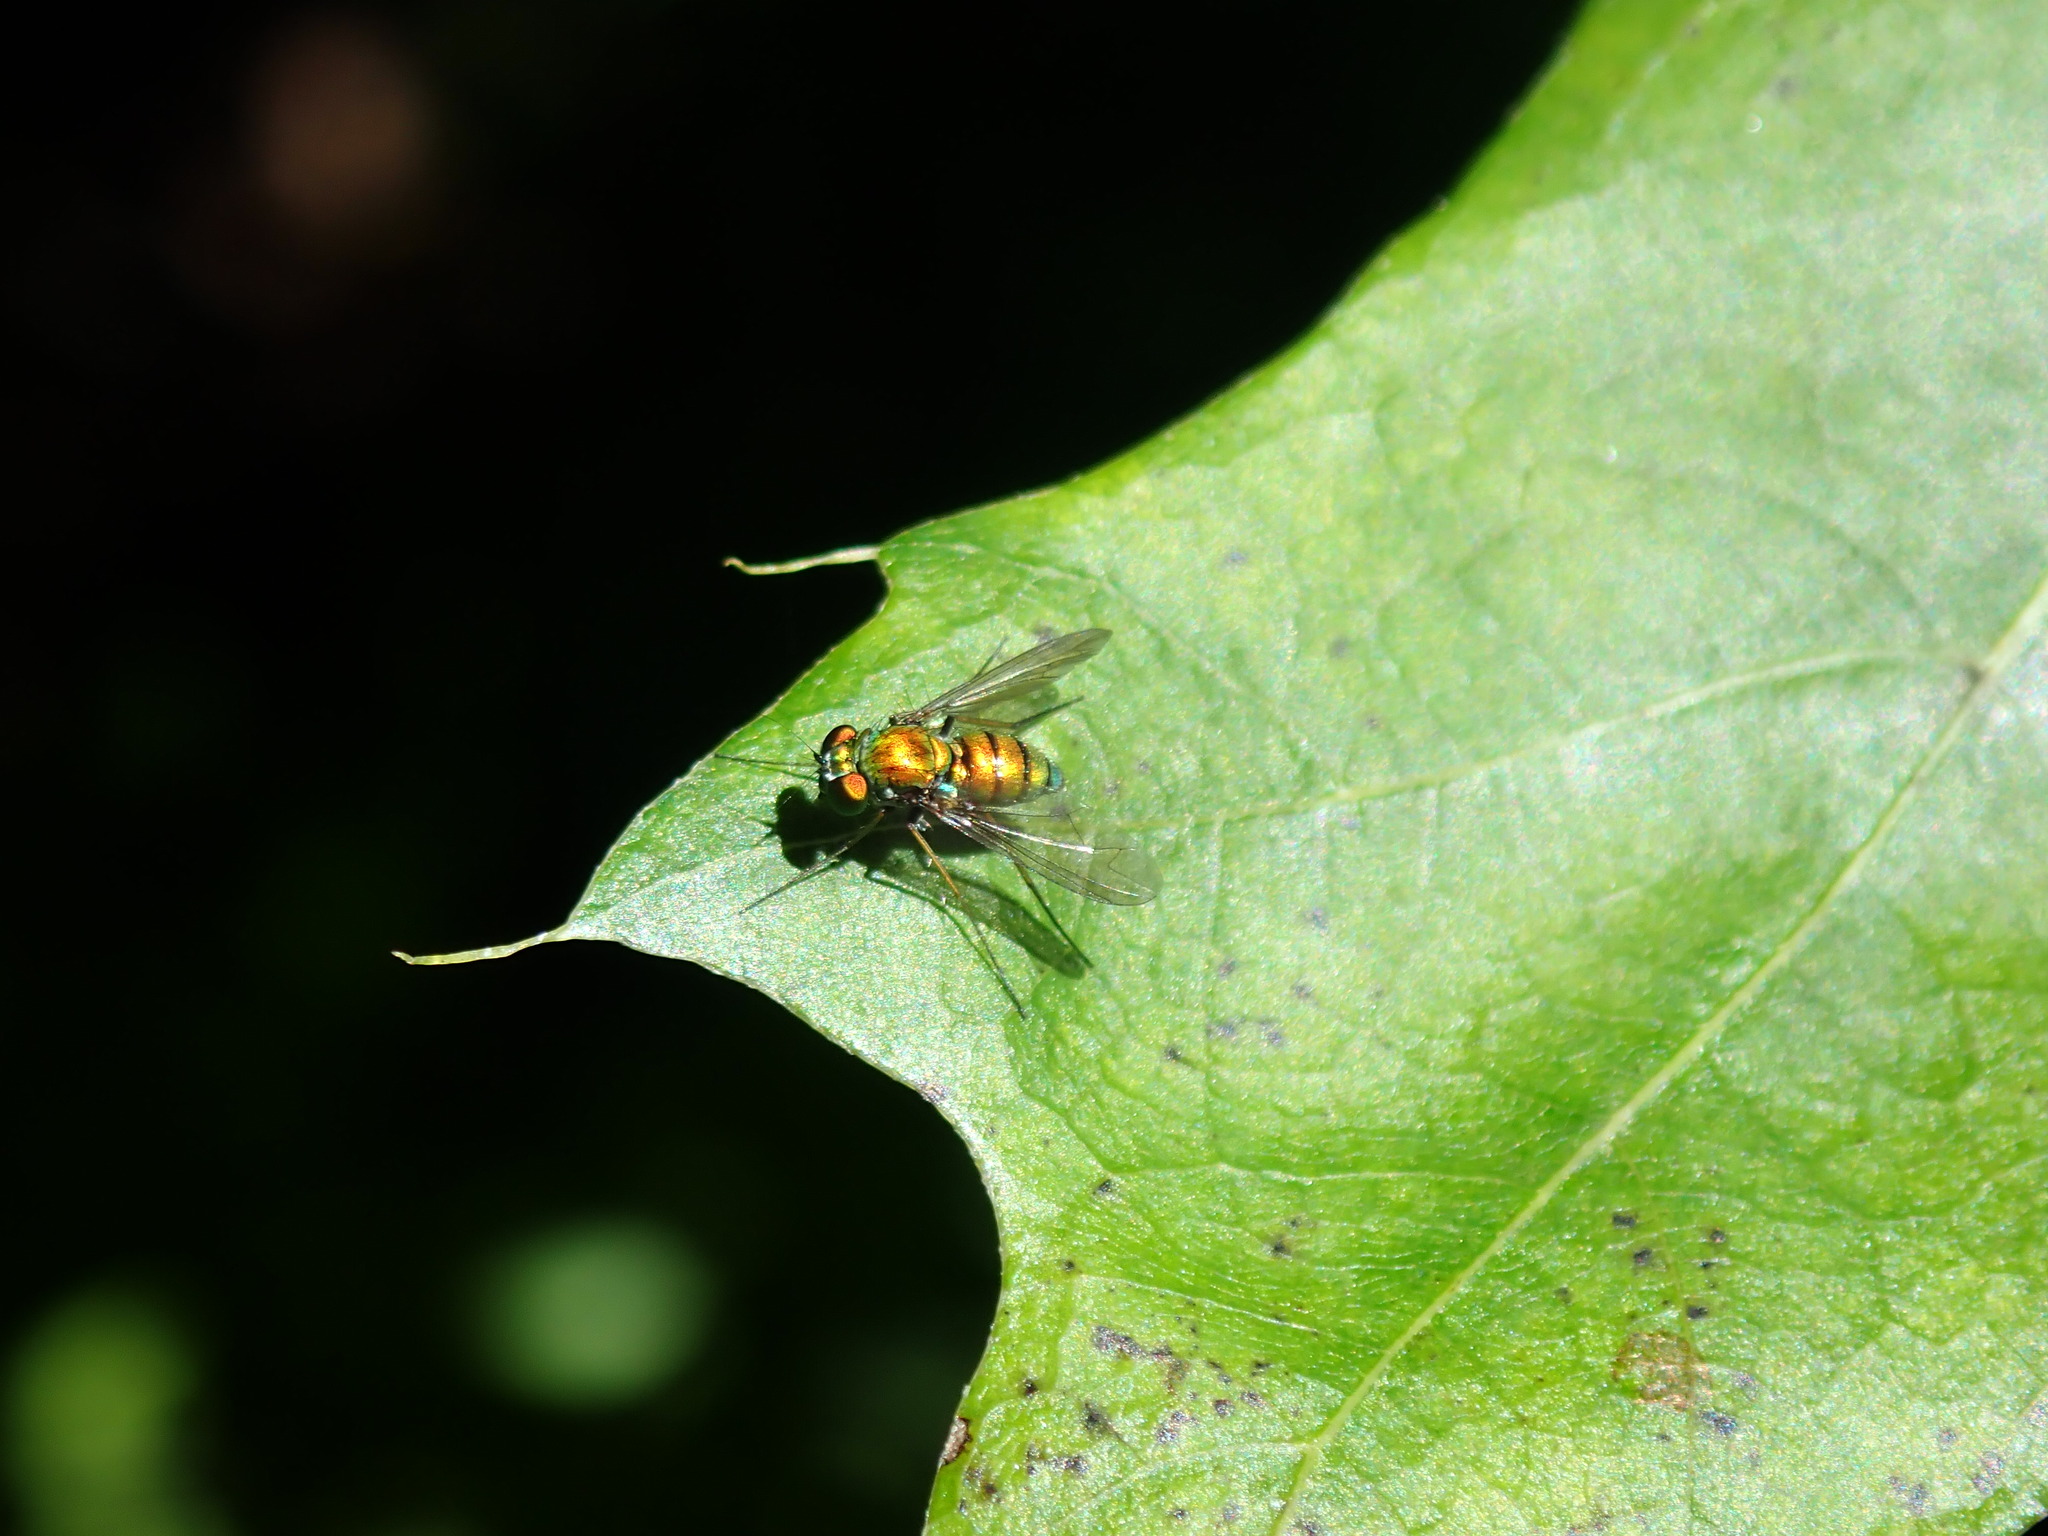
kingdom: Animalia
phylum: Arthropoda
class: Insecta
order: Diptera
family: Dolichopodidae
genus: Condylostylus
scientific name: Condylostylus
